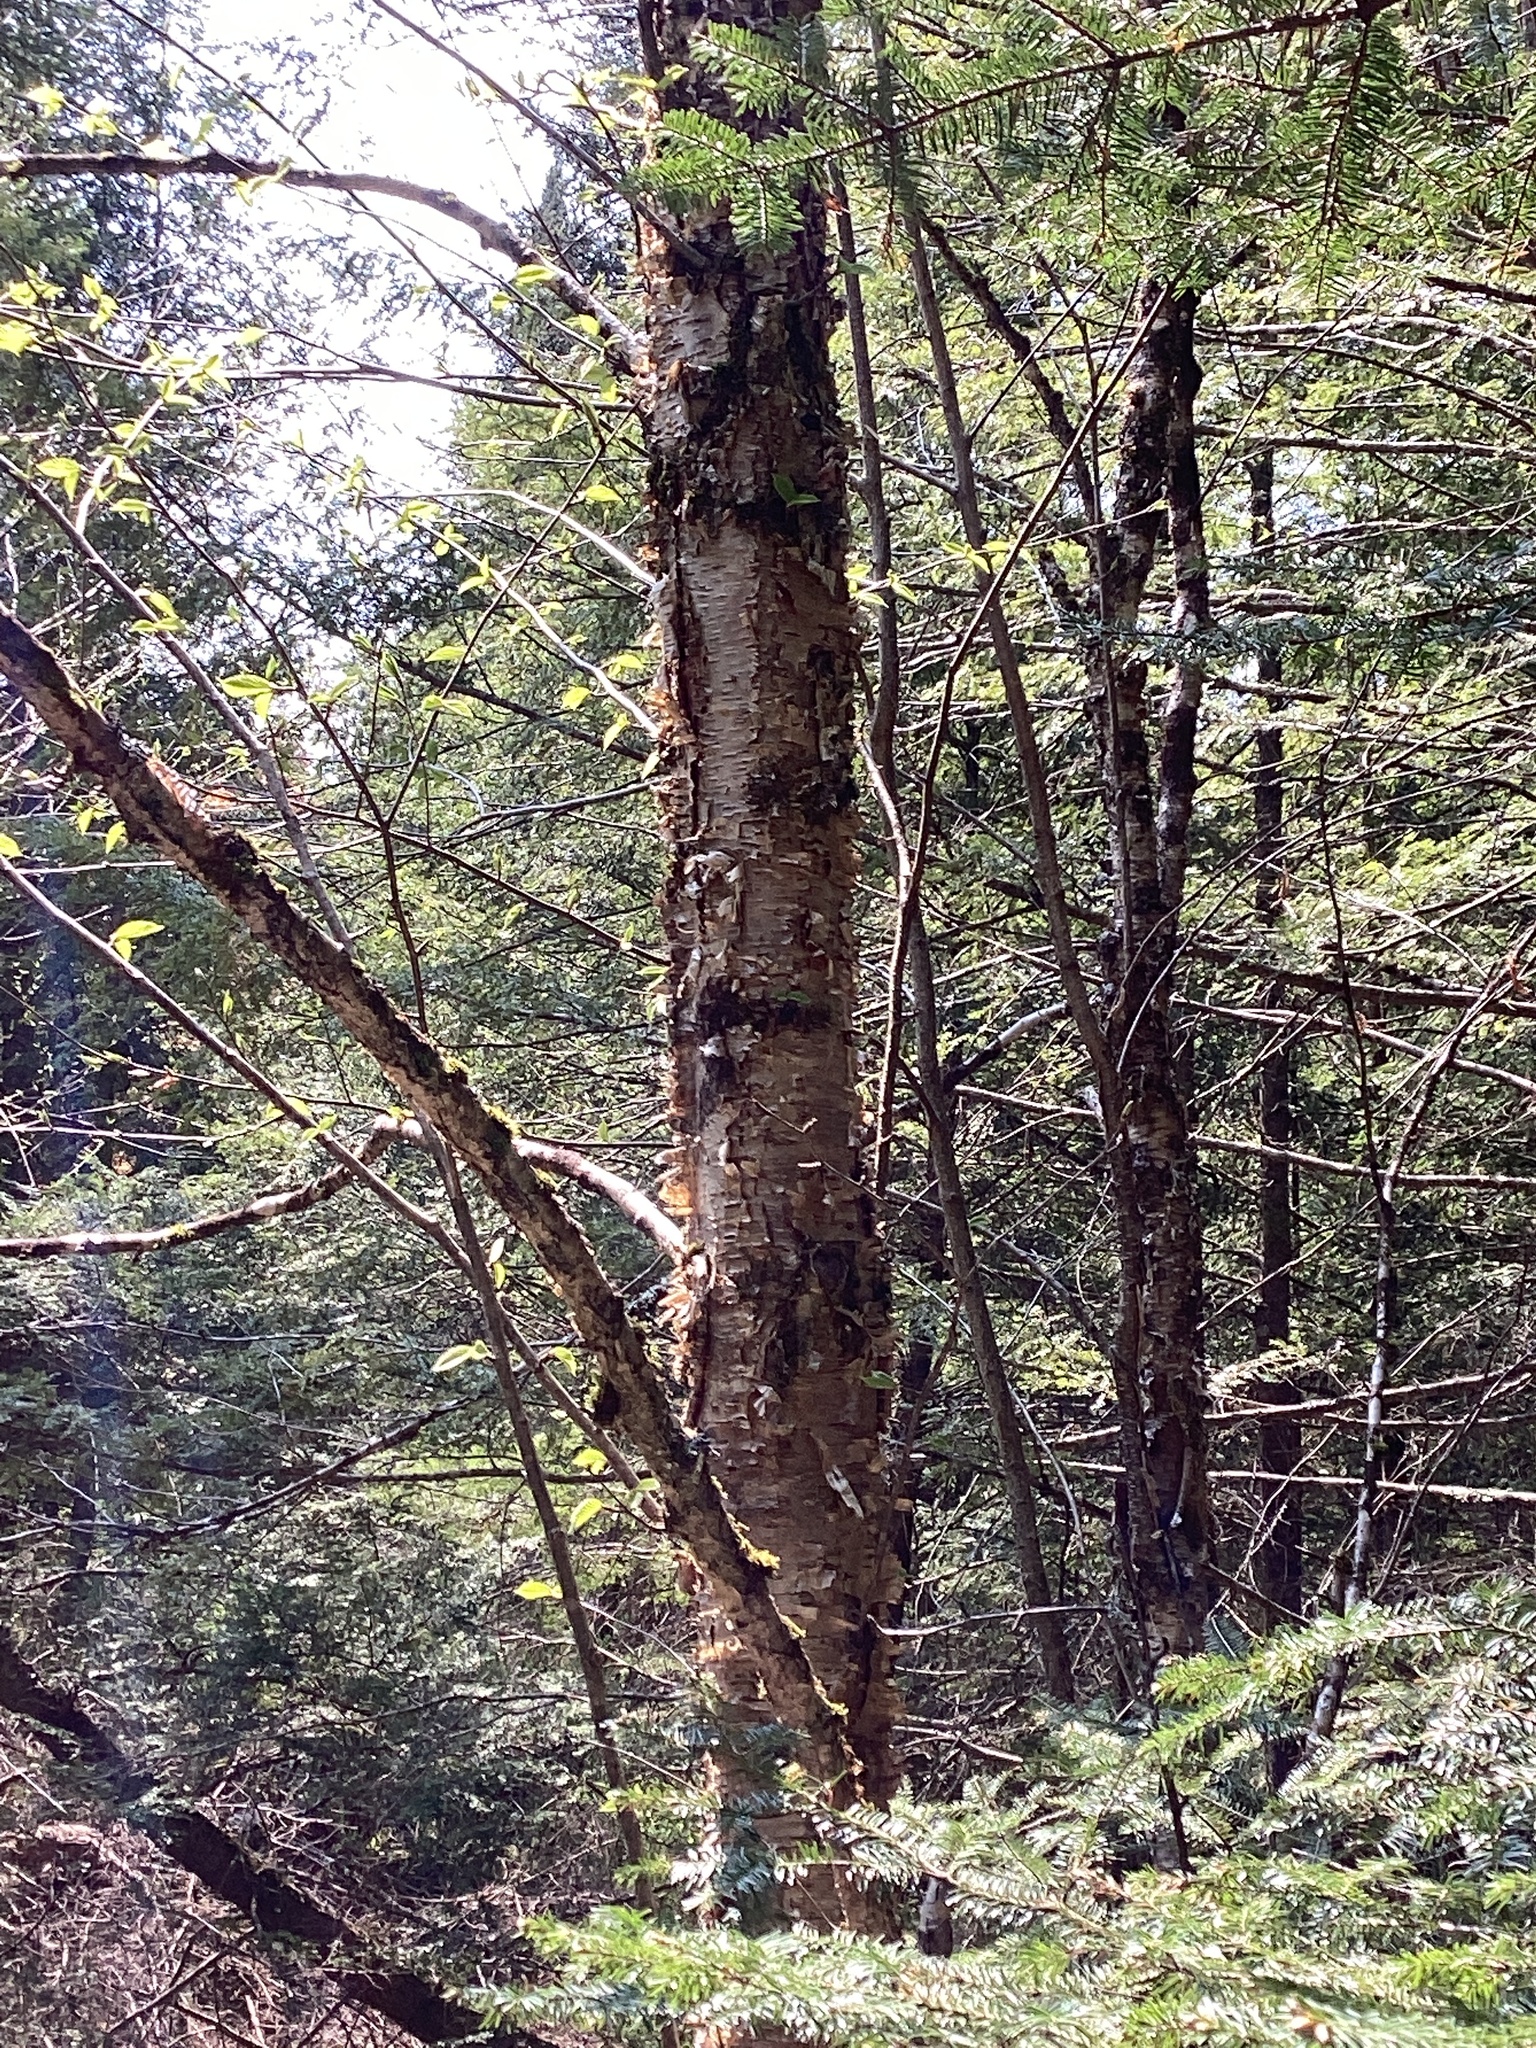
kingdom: Plantae
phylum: Tracheophyta
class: Magnoliopsida
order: Fagales
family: Betulaceae
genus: Betula
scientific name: Betula alleghaniensis
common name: Yellow birch
